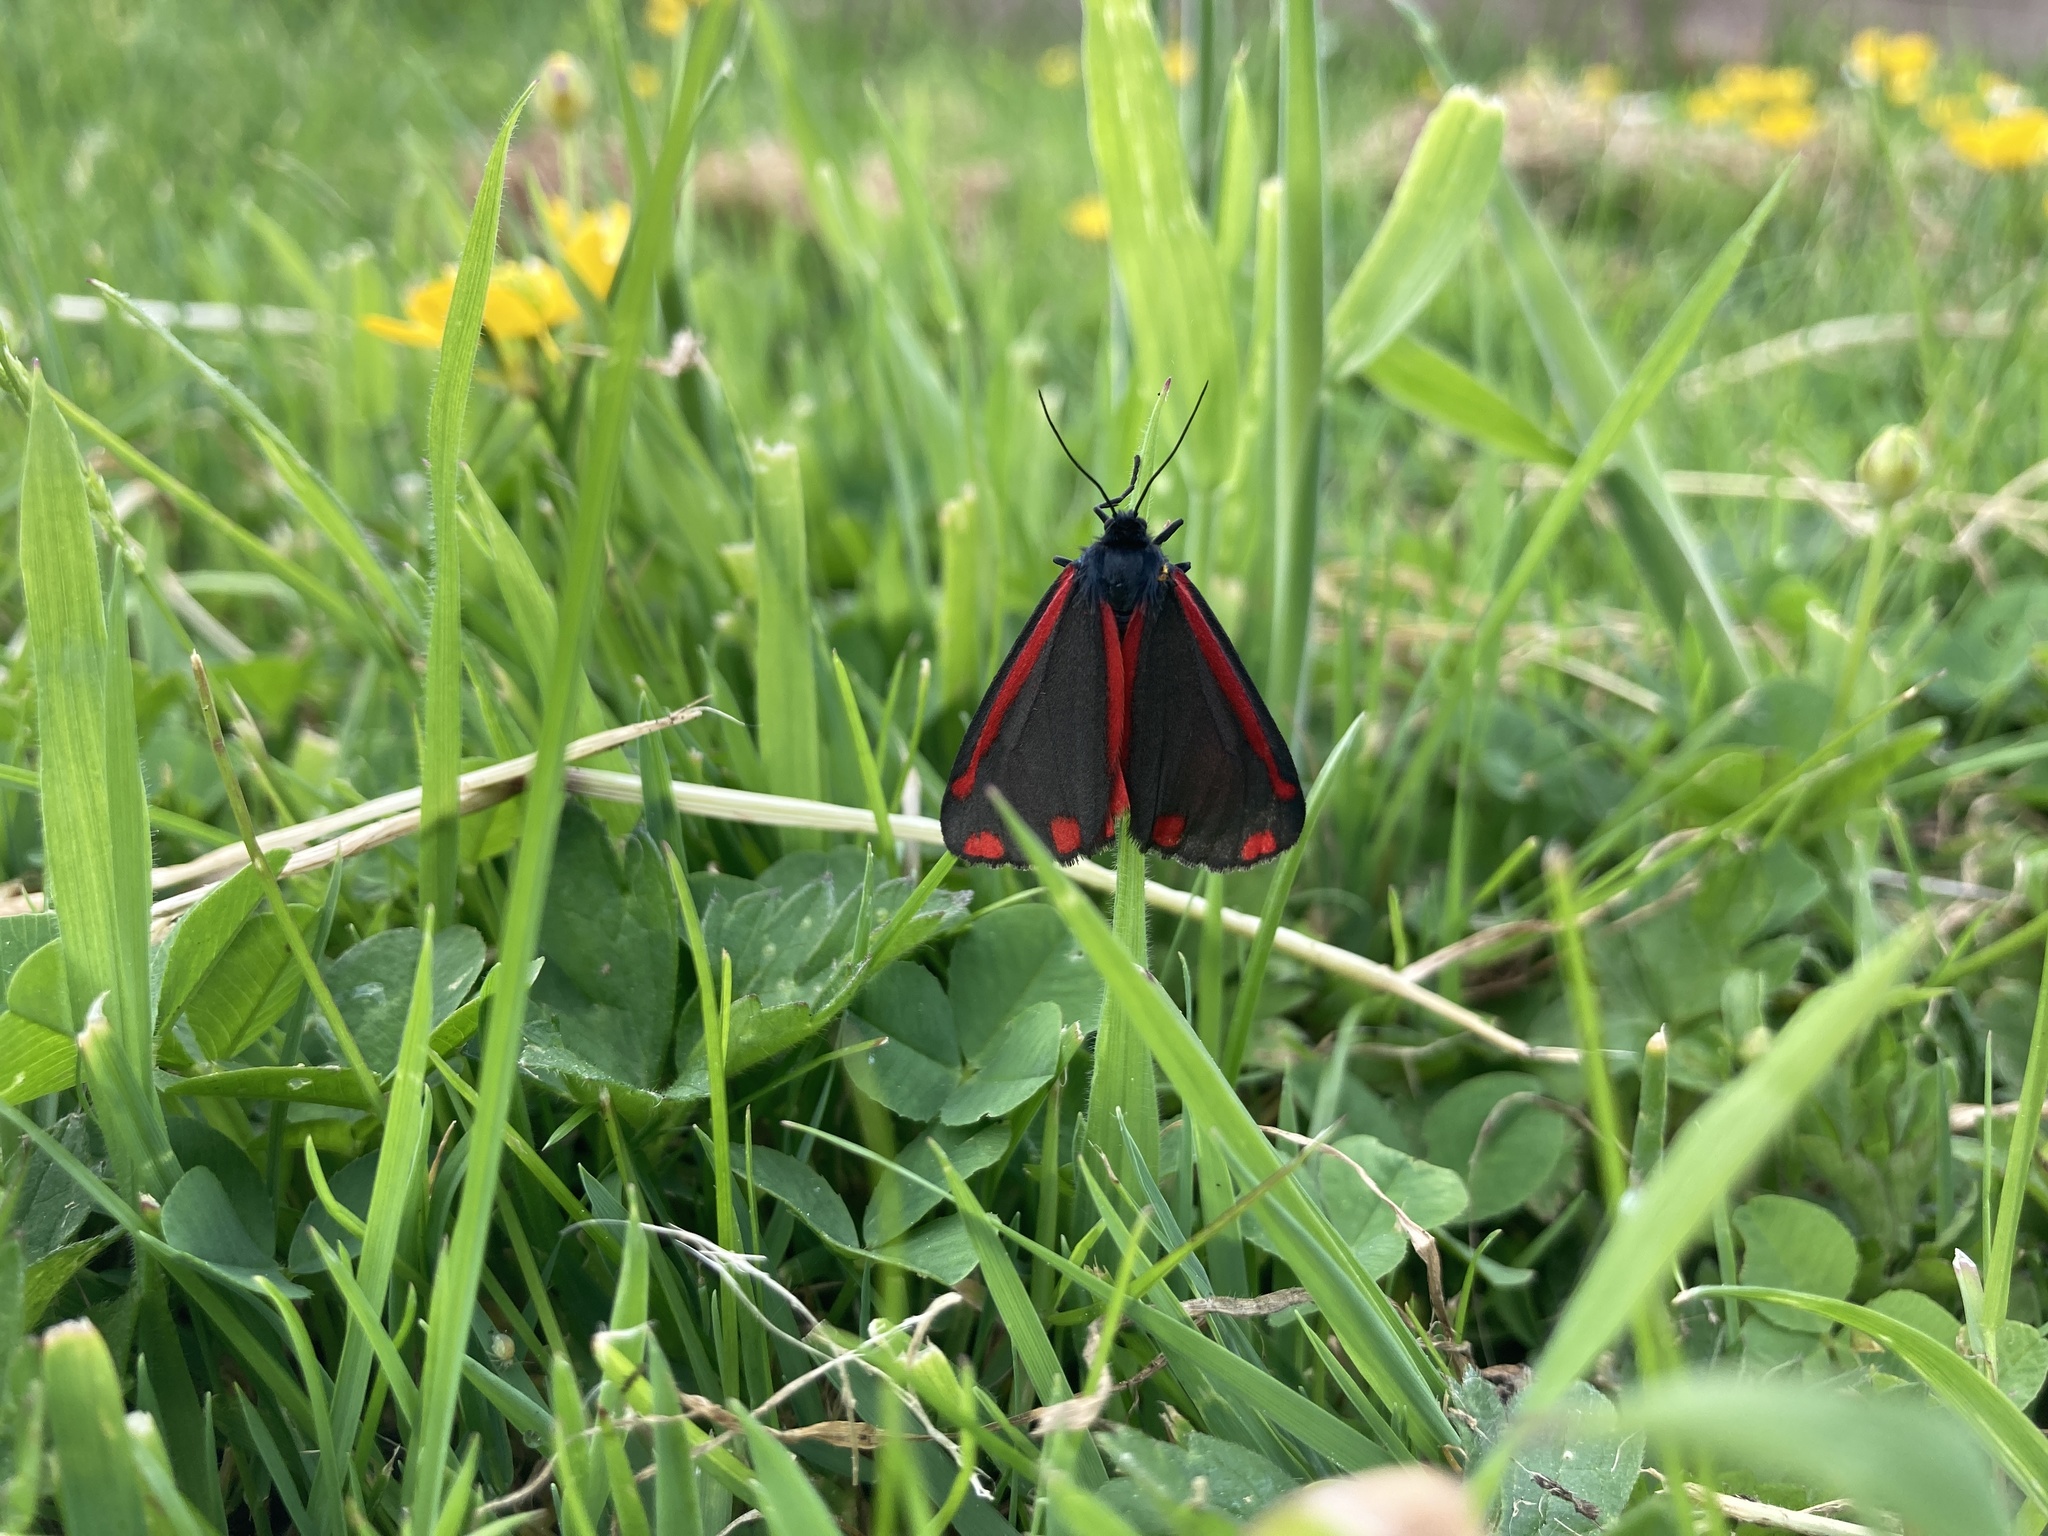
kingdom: Animalia
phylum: Arthropoda
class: Insecta
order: Lepidoptera
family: Erebidae
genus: Tyria
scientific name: Tyria jacobaeae
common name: Cinnabar
